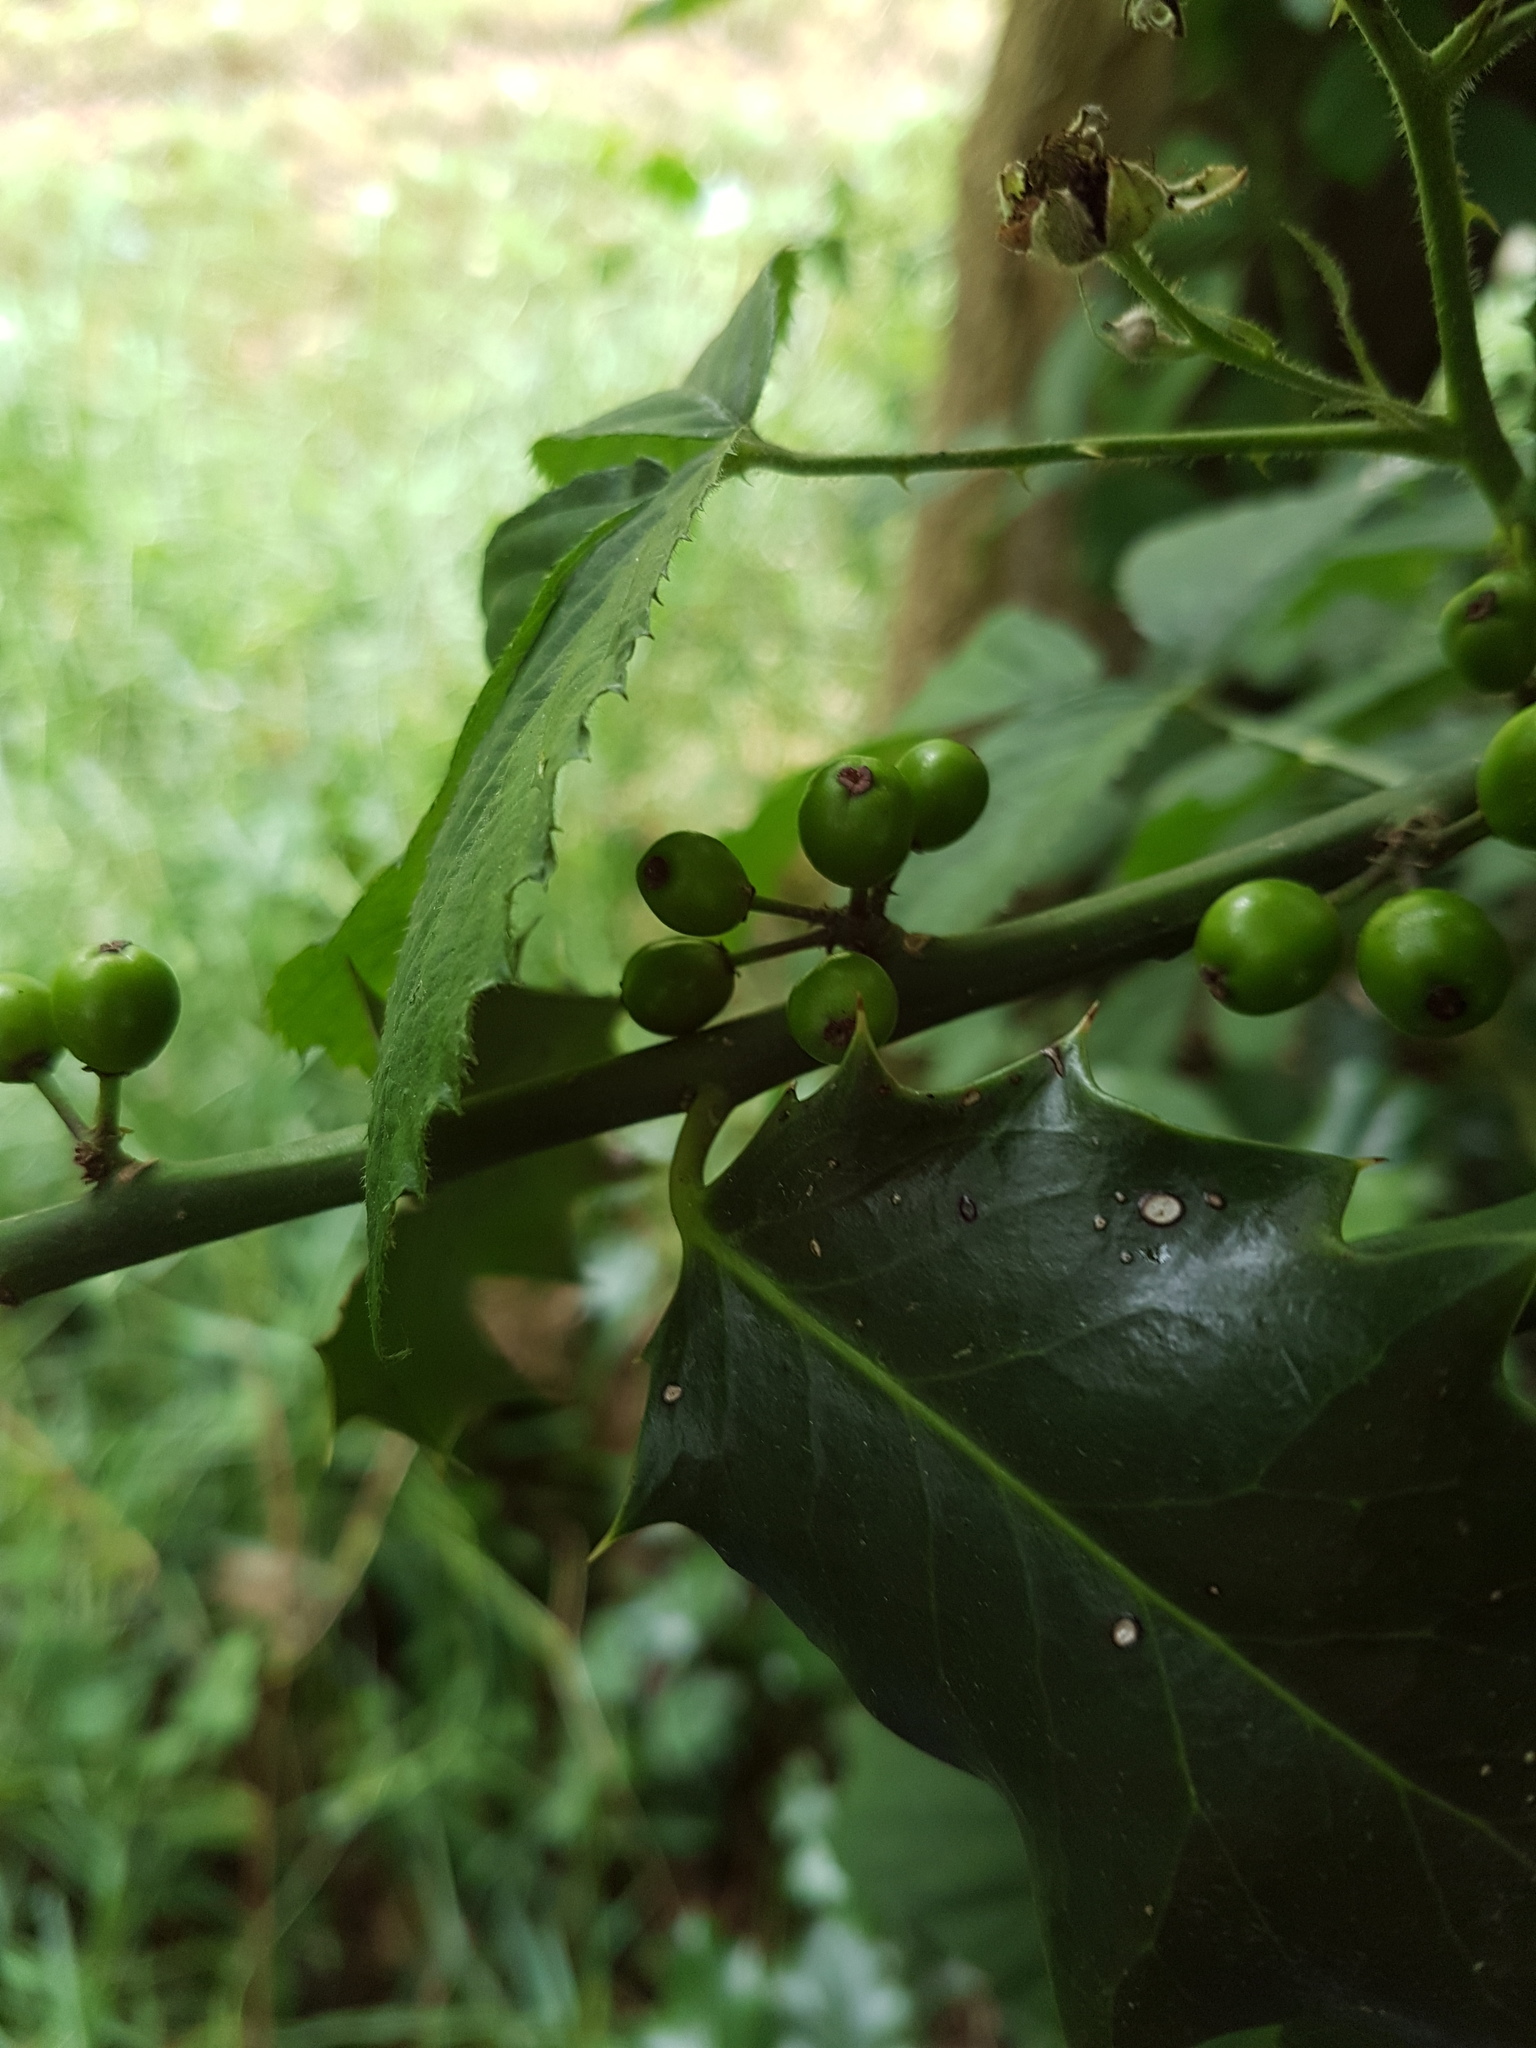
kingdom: Plantae
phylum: Tracheophyta
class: Magnoliopsida
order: Aquifoliales
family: Aquifoliaceae
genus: Ilex
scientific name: Ilex aquifolium
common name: English holly
